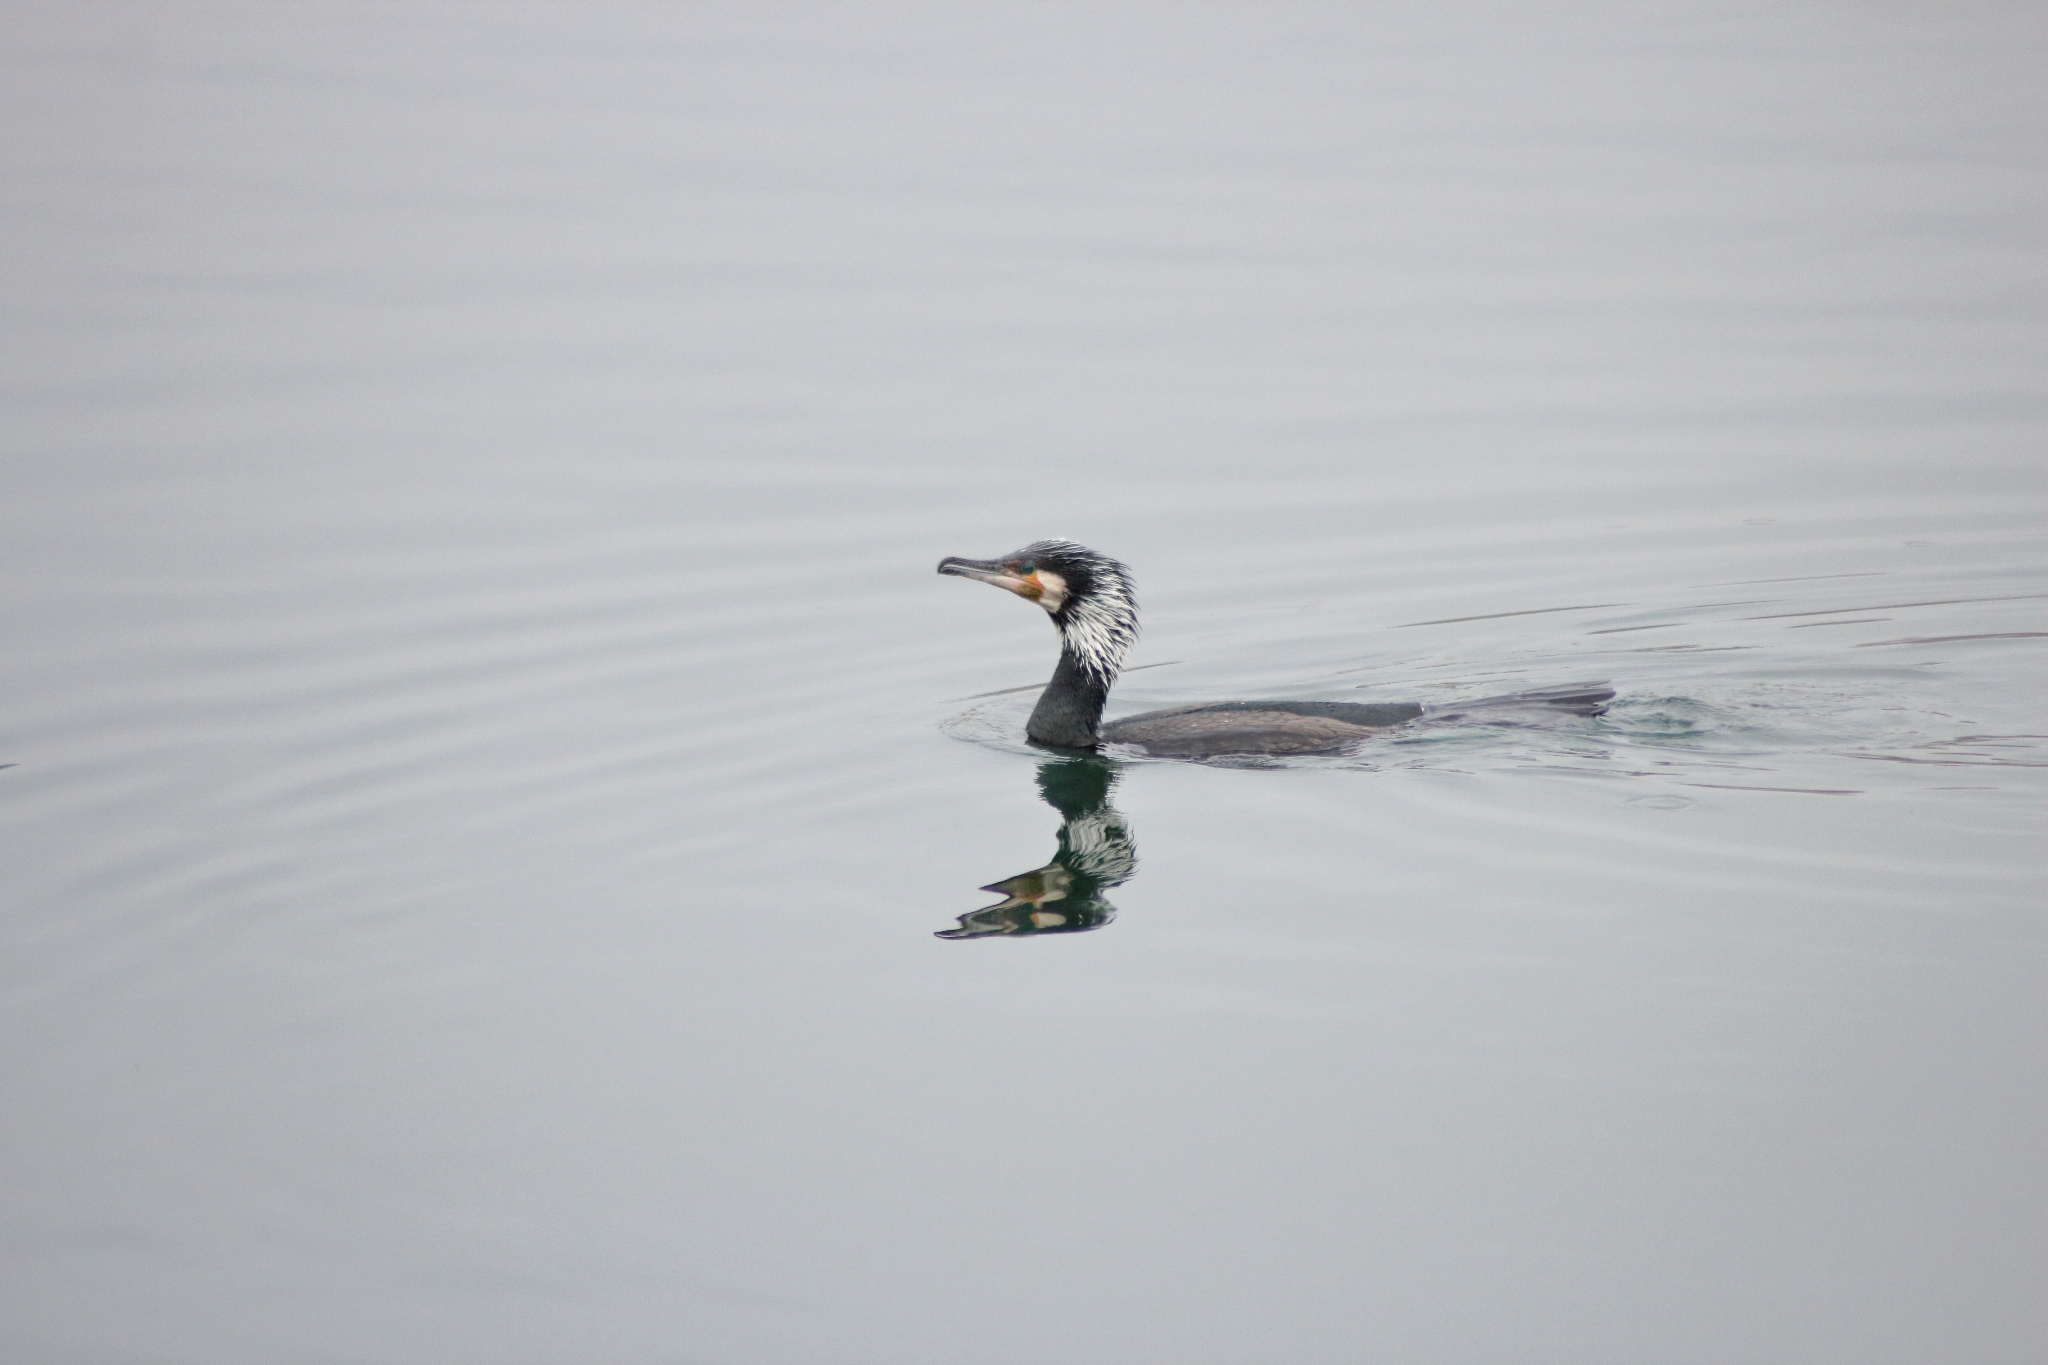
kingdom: Animalia
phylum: Chordata
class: Aves
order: Suliformes
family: Phalacrocoracidae
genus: Phalacrocorax
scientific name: Phalacrocorax carbo
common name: Great cormorant
